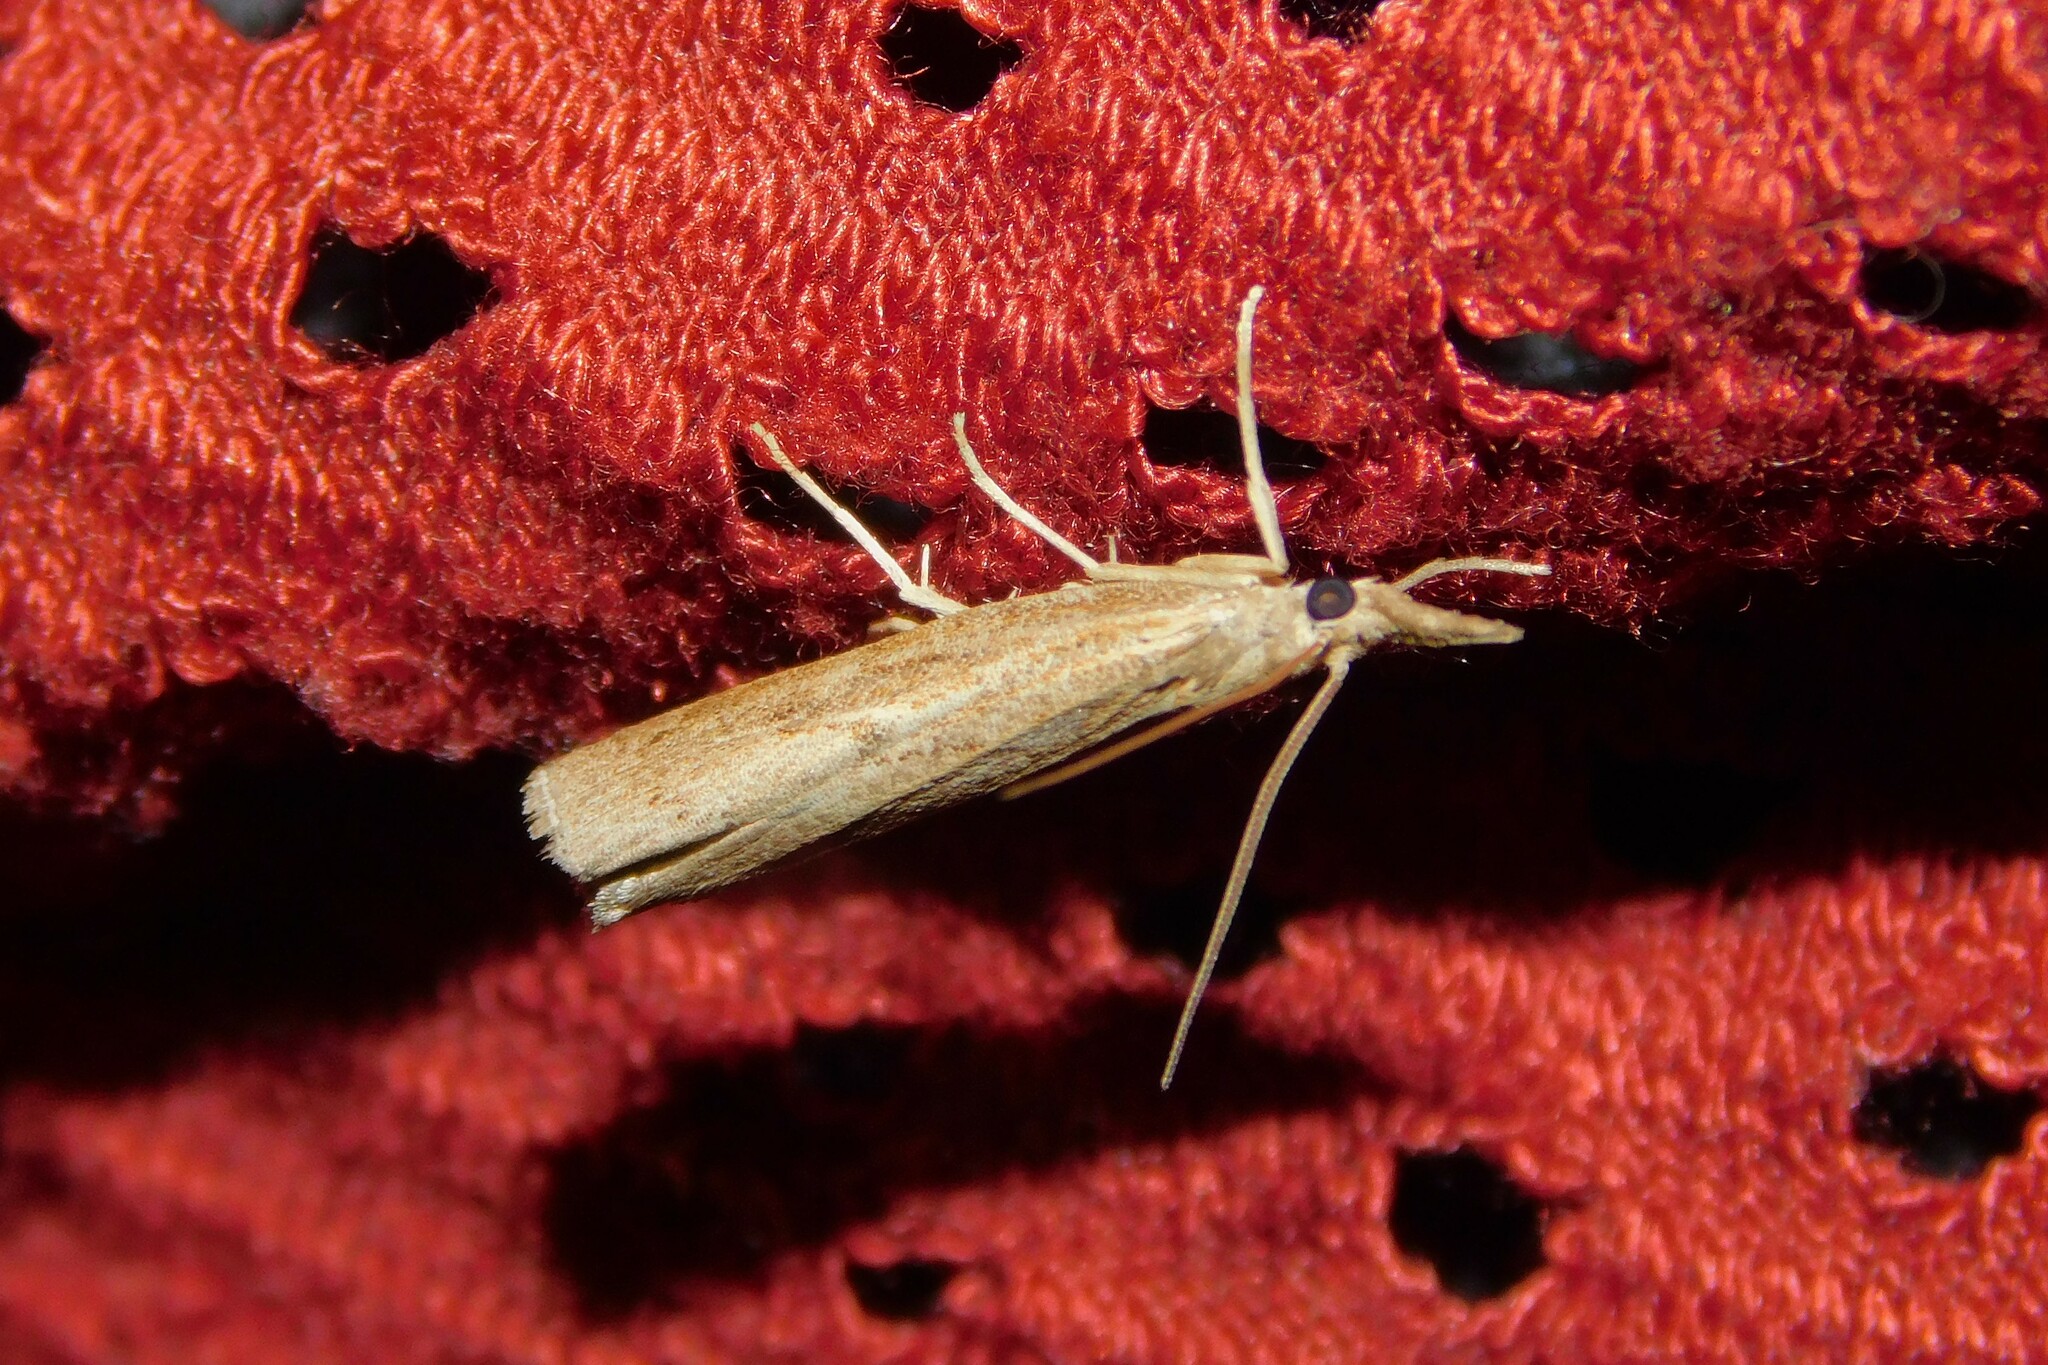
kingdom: Animalia
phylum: Arthropoda
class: Insecta
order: Lepidoptera
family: Crambidae
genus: Pediasia
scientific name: Pediasia contaminella
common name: Waste grass-veneer
